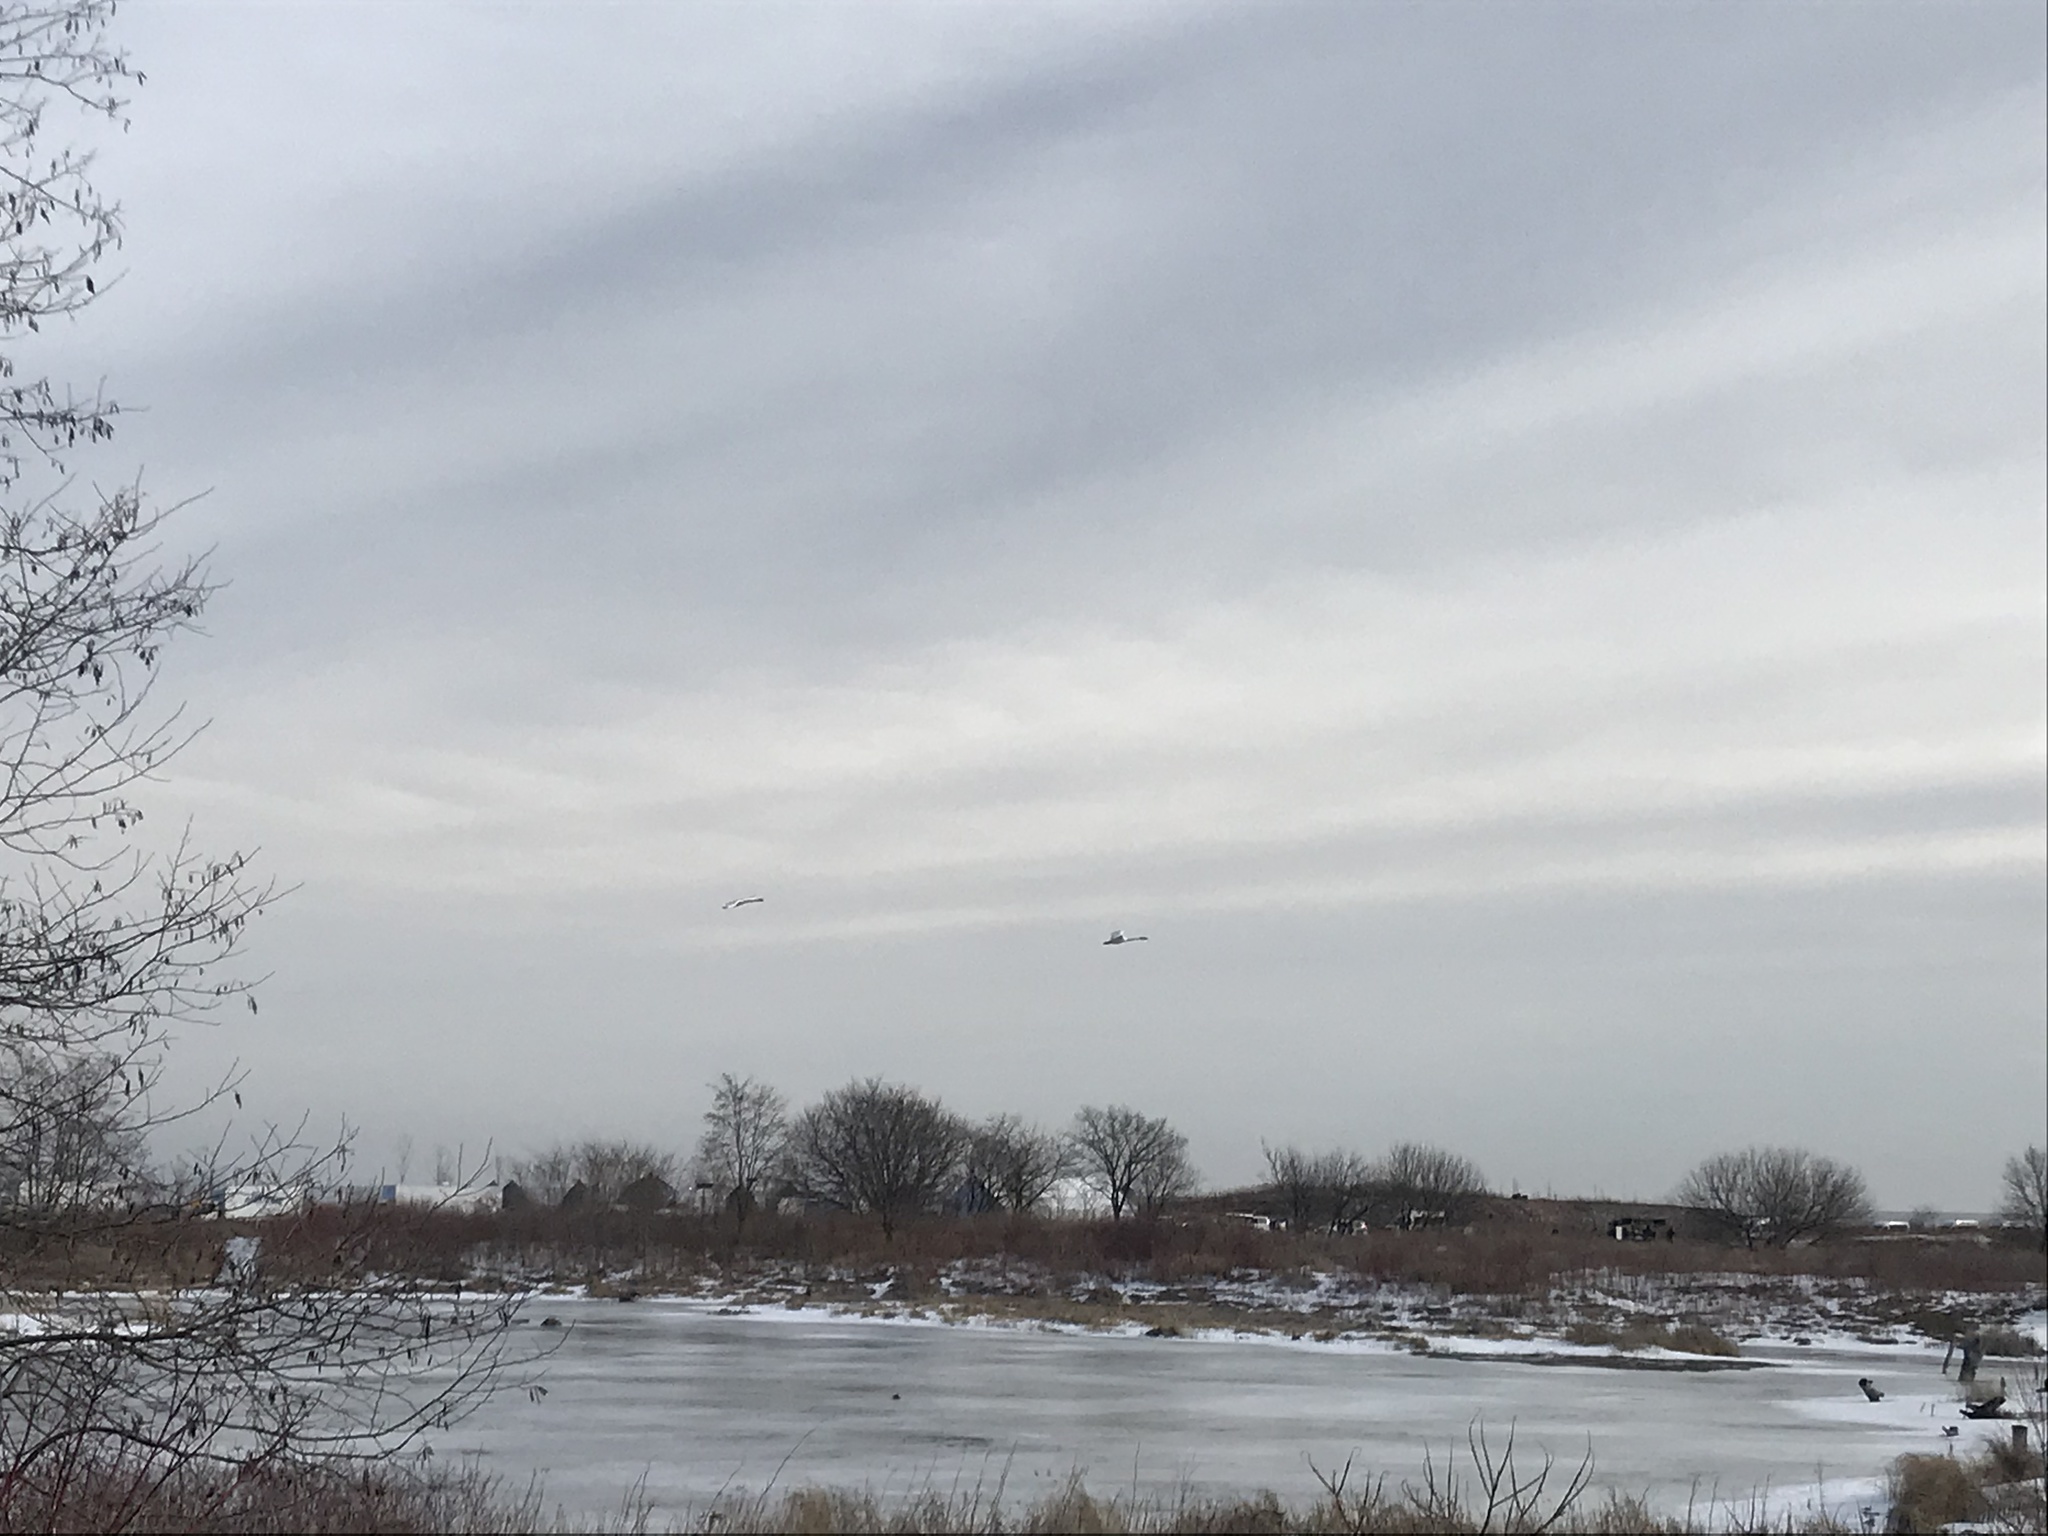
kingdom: Animalia
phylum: Chordata
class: Aves
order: Anseriformes
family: Anatidae
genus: Cygnus
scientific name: Cygnus buccinator
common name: Trumpeter swan
